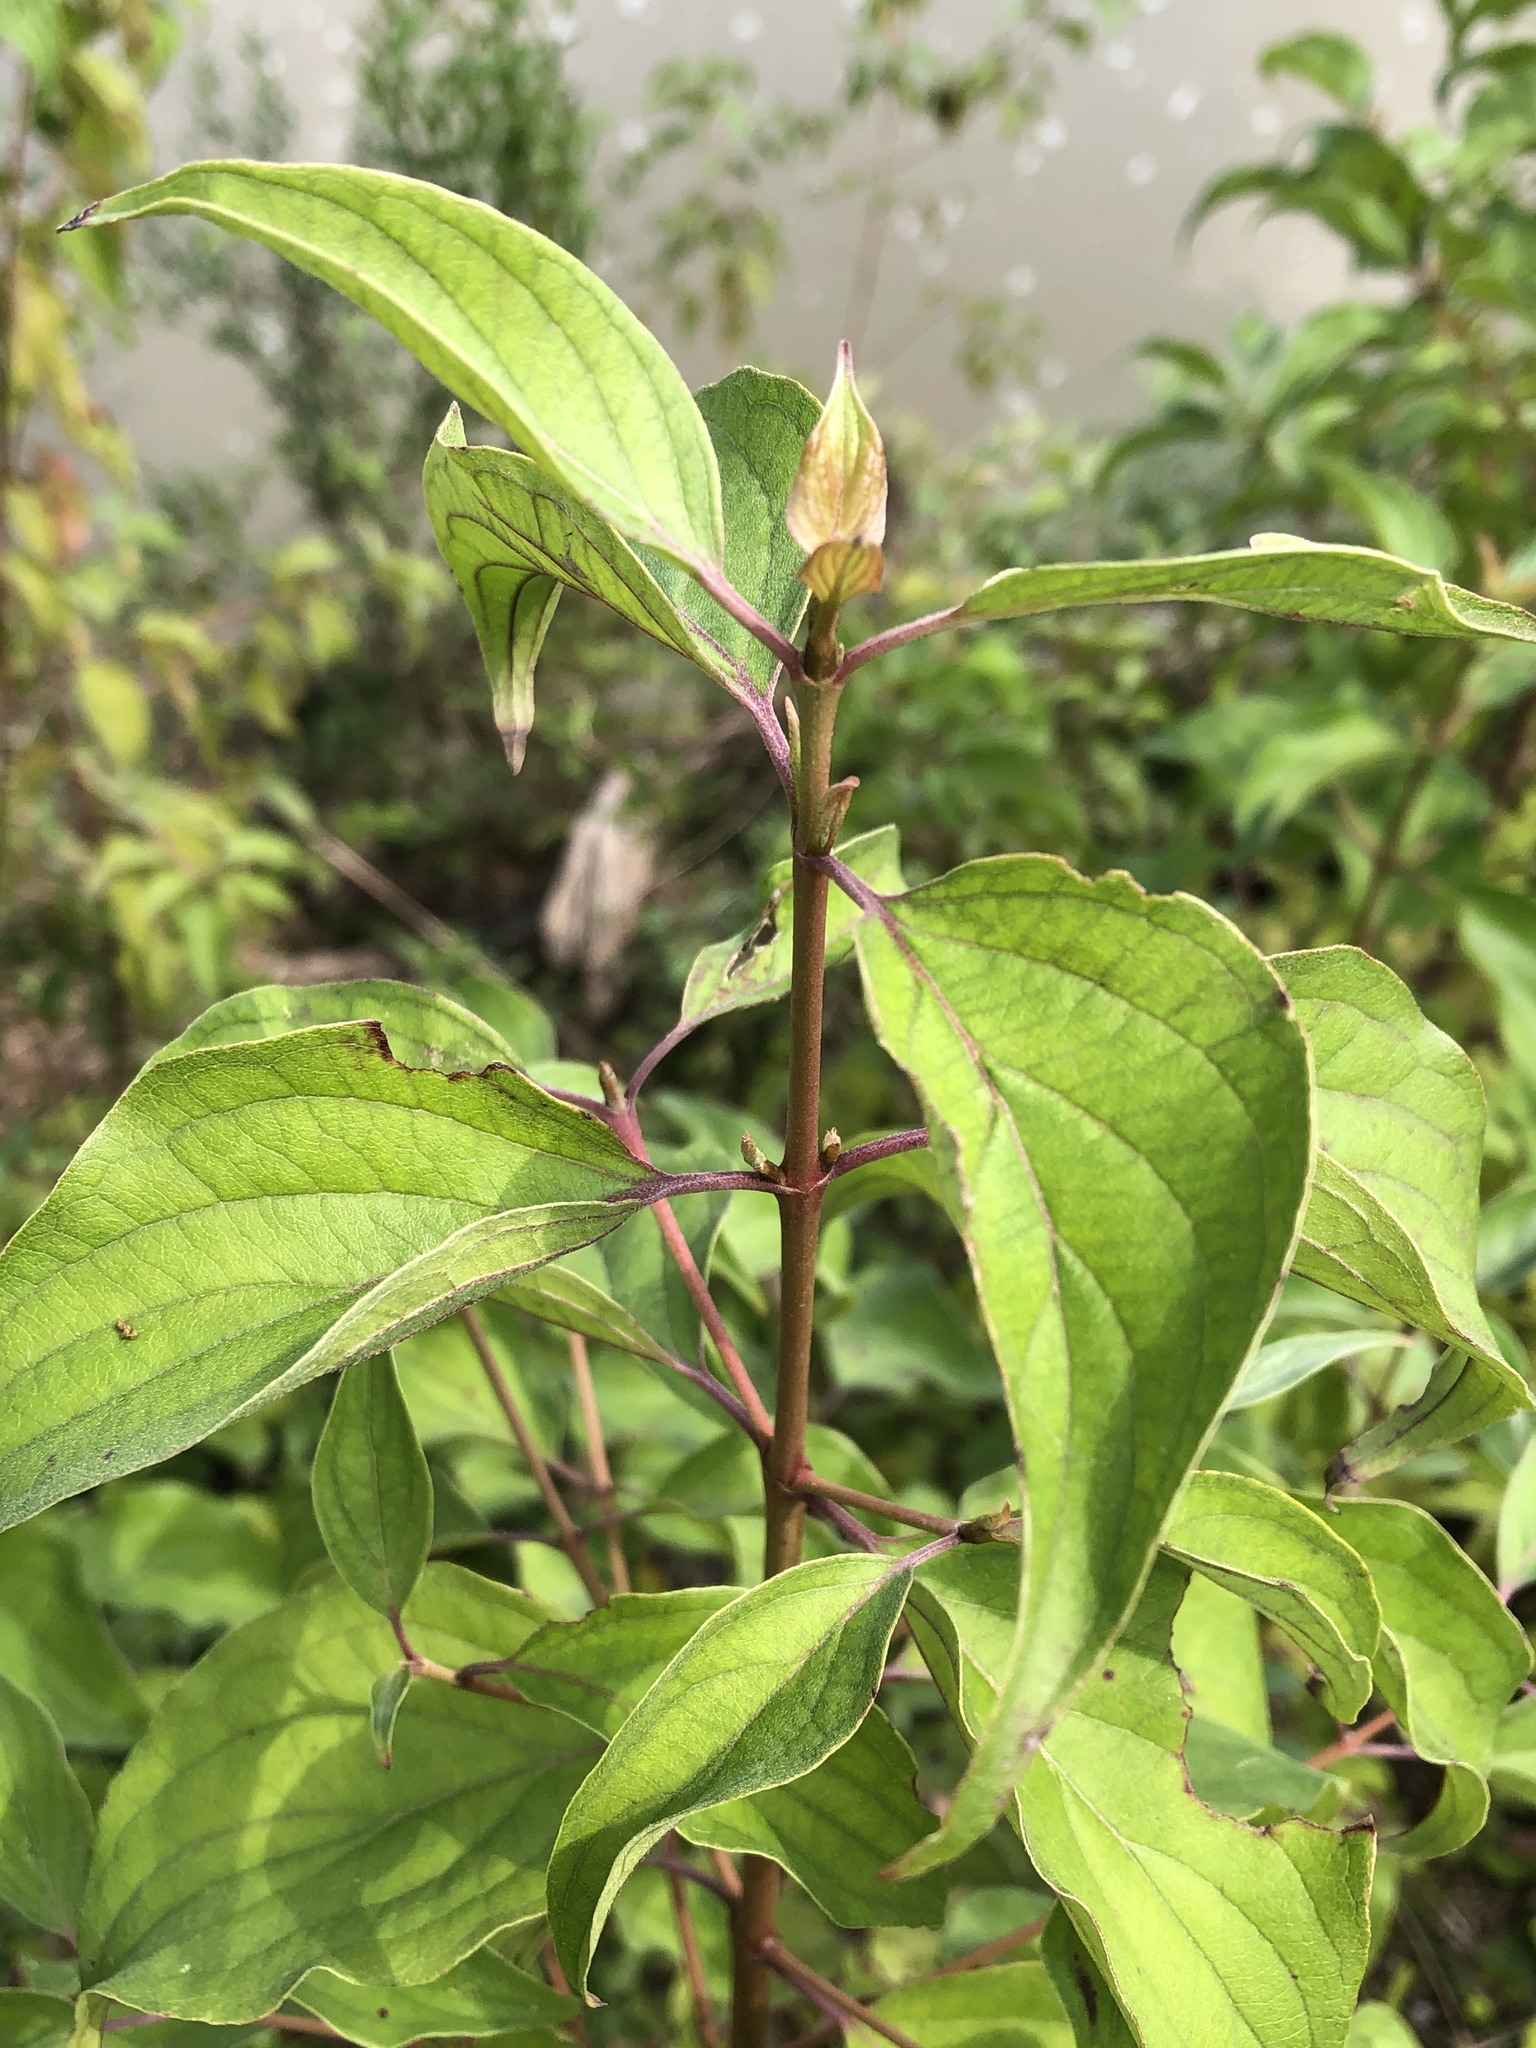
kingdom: Plantae
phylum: Tracheophyta
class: Magnoliopsida
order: Cornales
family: Cornaceae
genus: Cornus
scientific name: Cornus drummondii
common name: Rough-leaf dogwood
